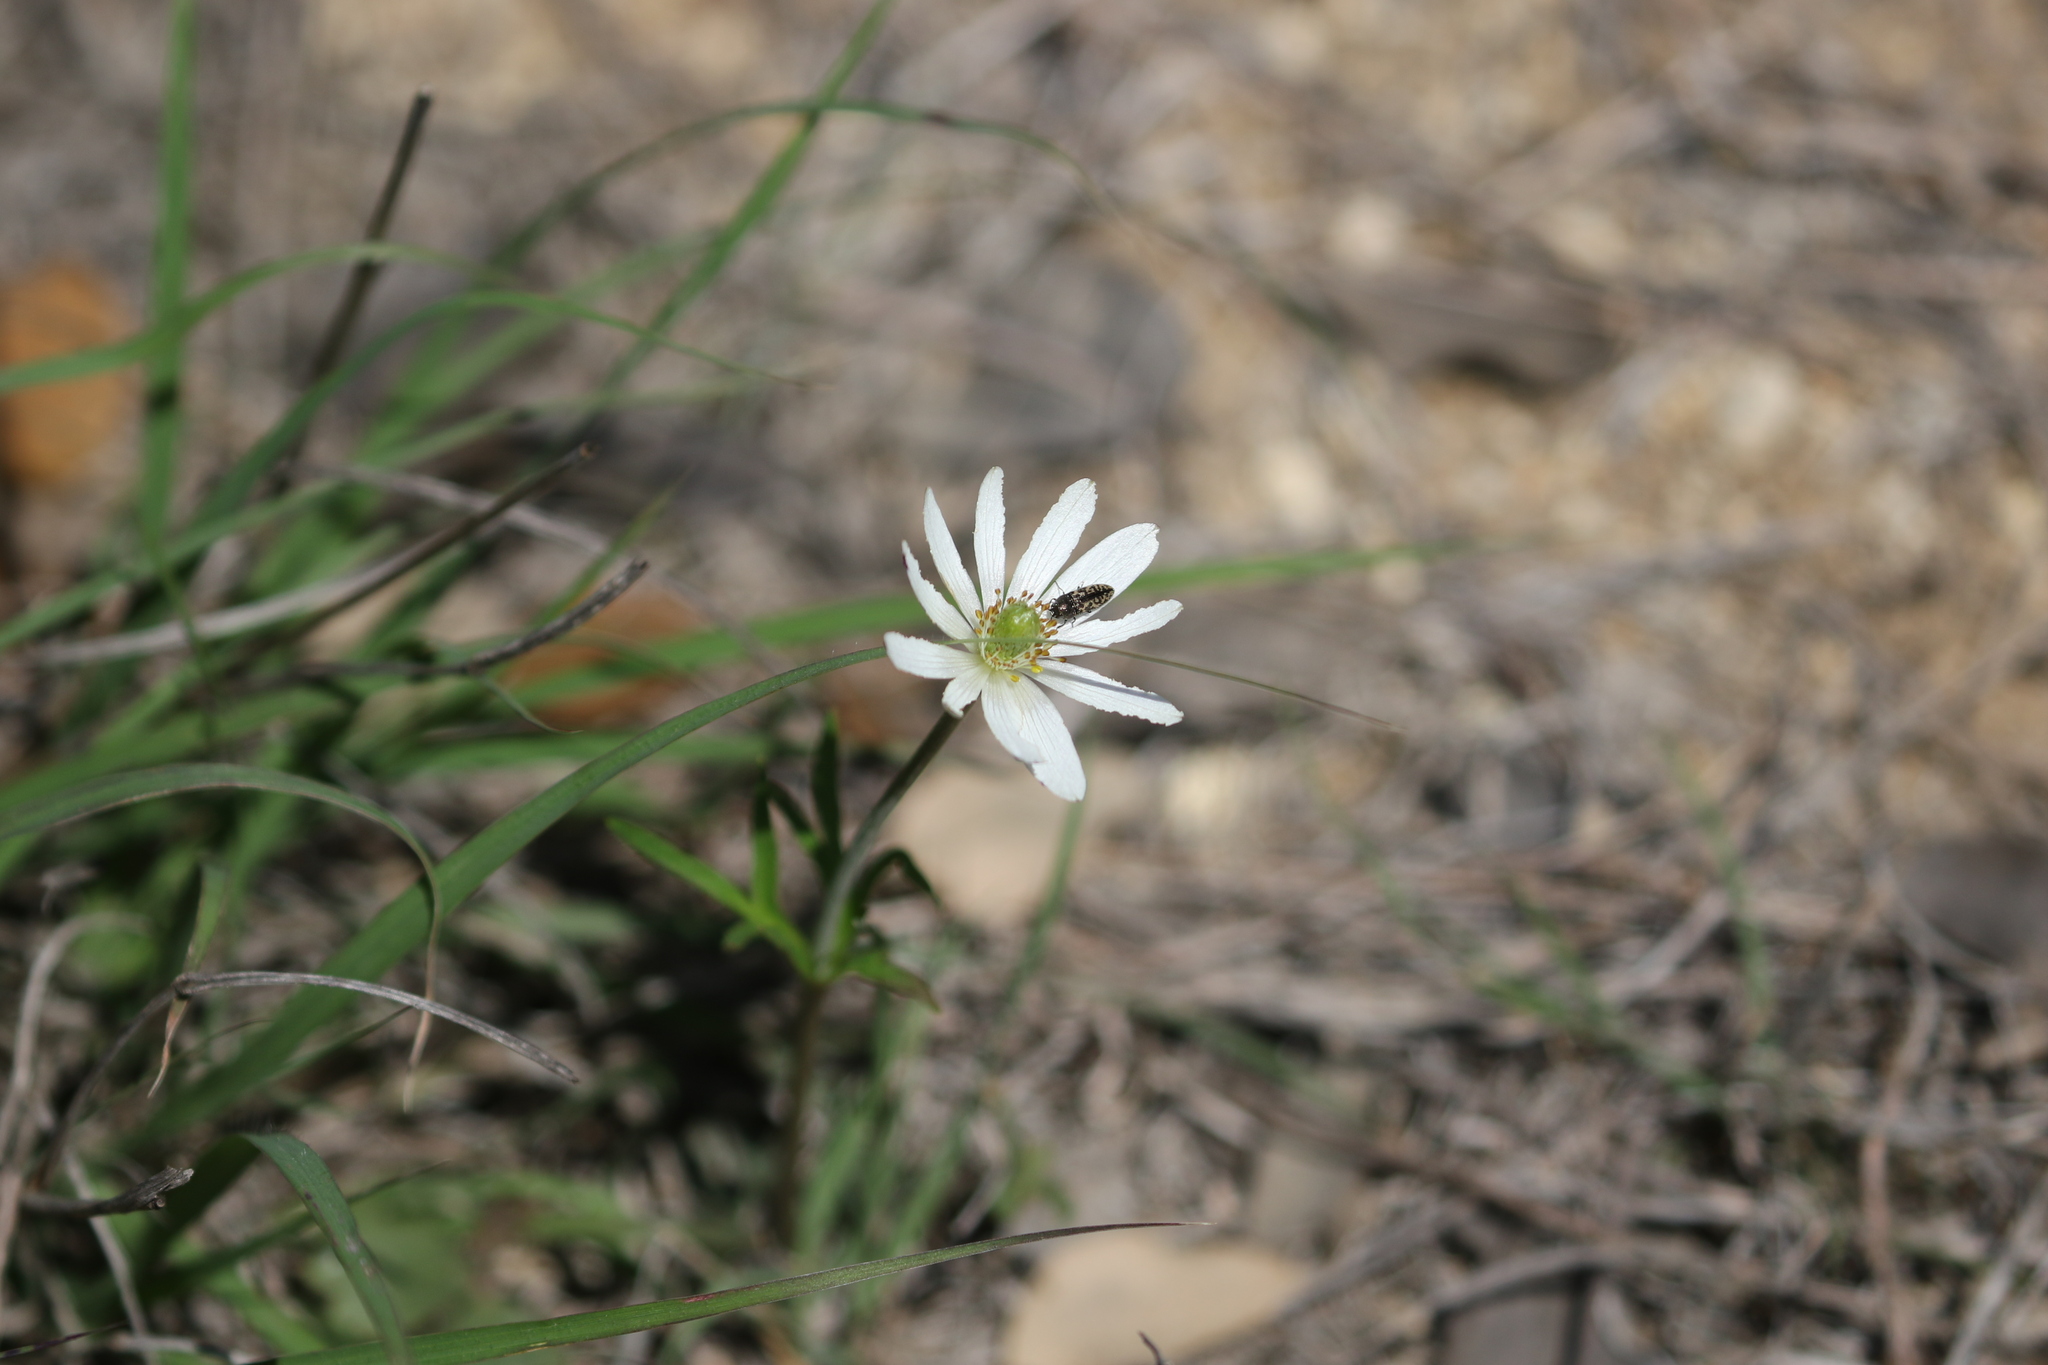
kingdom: Plantae
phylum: Tracheophyta
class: Magnoliopsida
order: Ranunculales
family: Ranunculaceae
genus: Anemone
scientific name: Anemone berlandieri
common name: Ten-petal anemone
